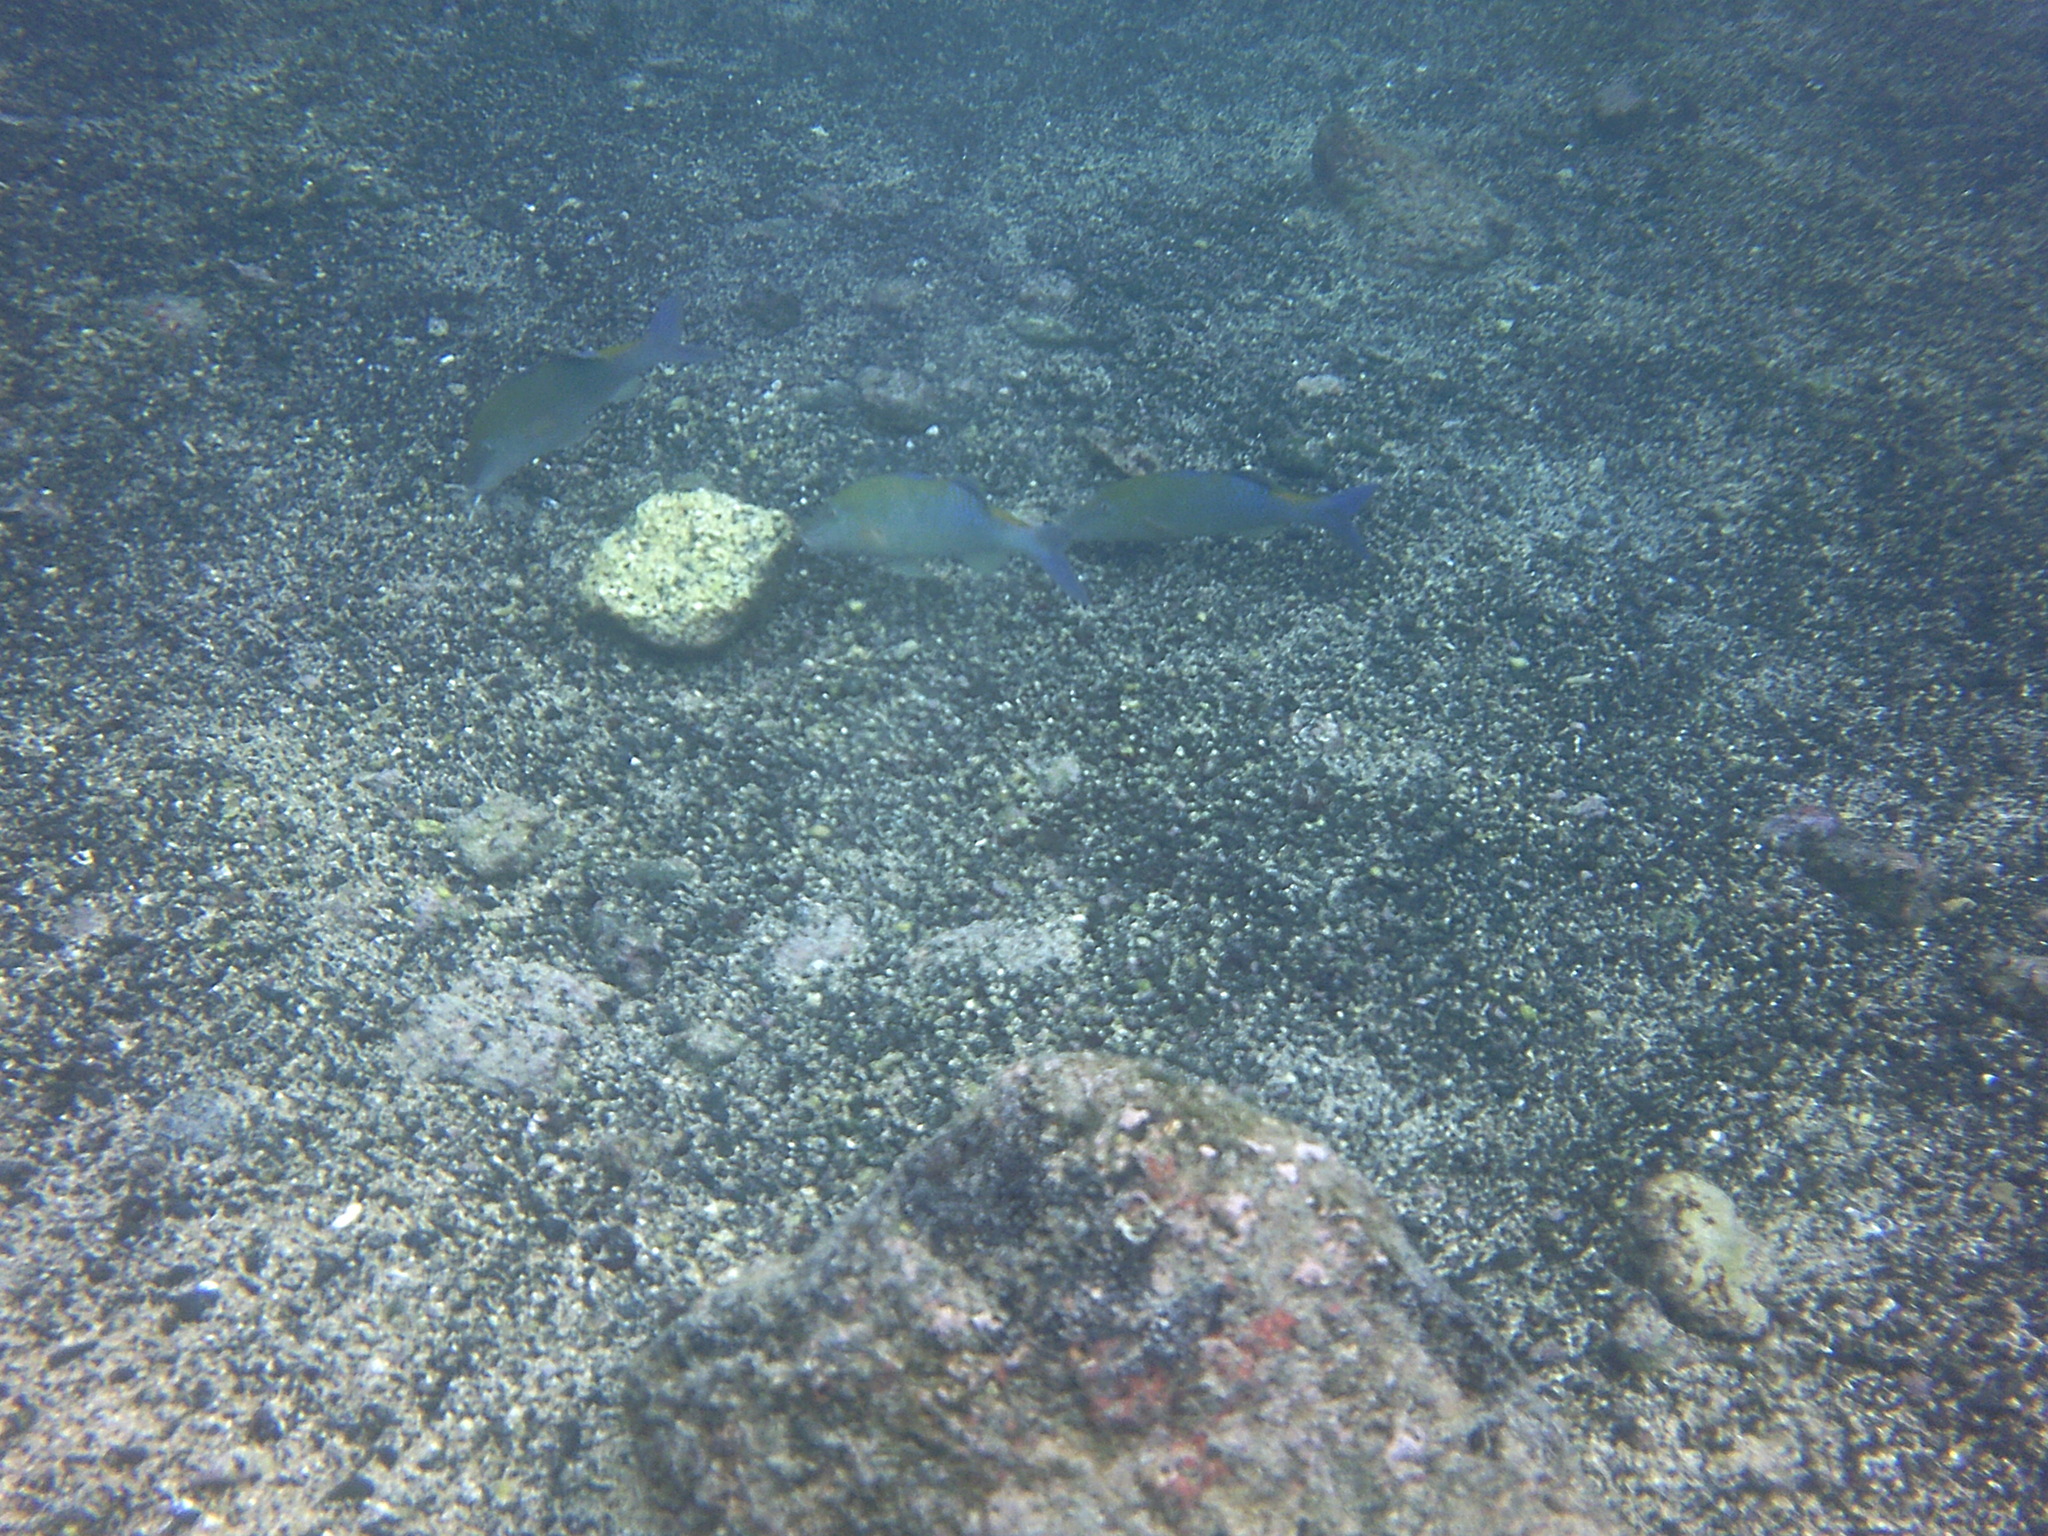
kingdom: Animalia
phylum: Chordata
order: Perciformes
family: Mullidae
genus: Parupeneus
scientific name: Parupeneus cyclostomus
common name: Goldsaddle goatfish
